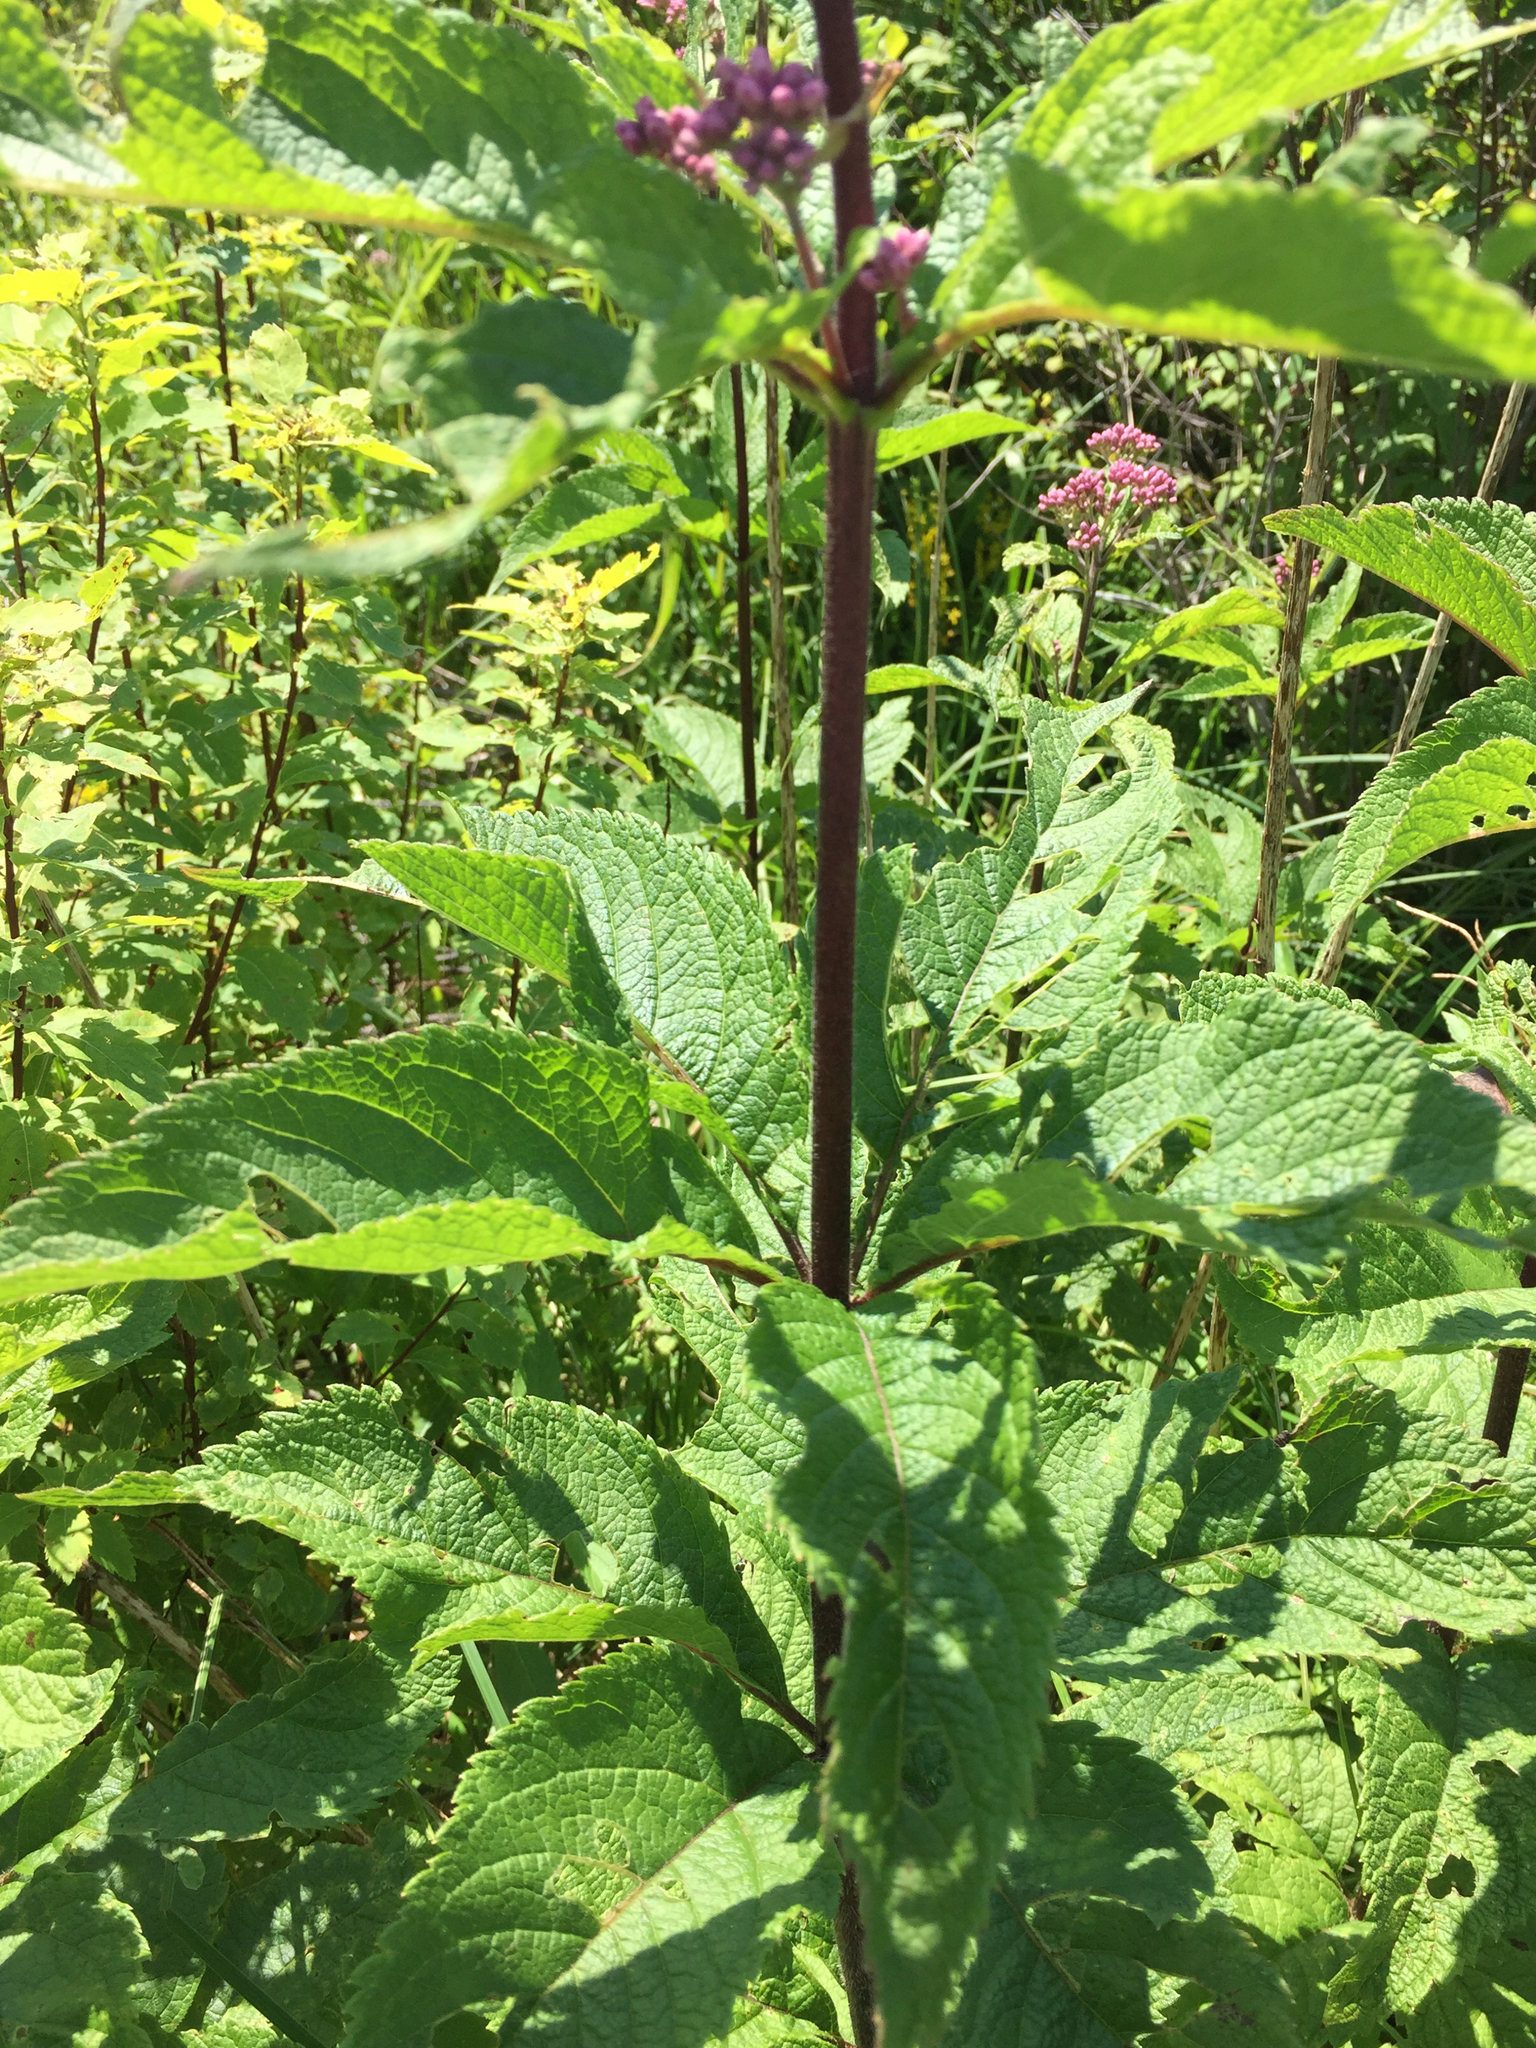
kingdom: Plantae
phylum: Tracheophyta
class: Magnoliopsida
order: Asterales
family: Asteraceae
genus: Eutrochium
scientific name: Eutrochium maculatum
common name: Spotted joe pye weed
